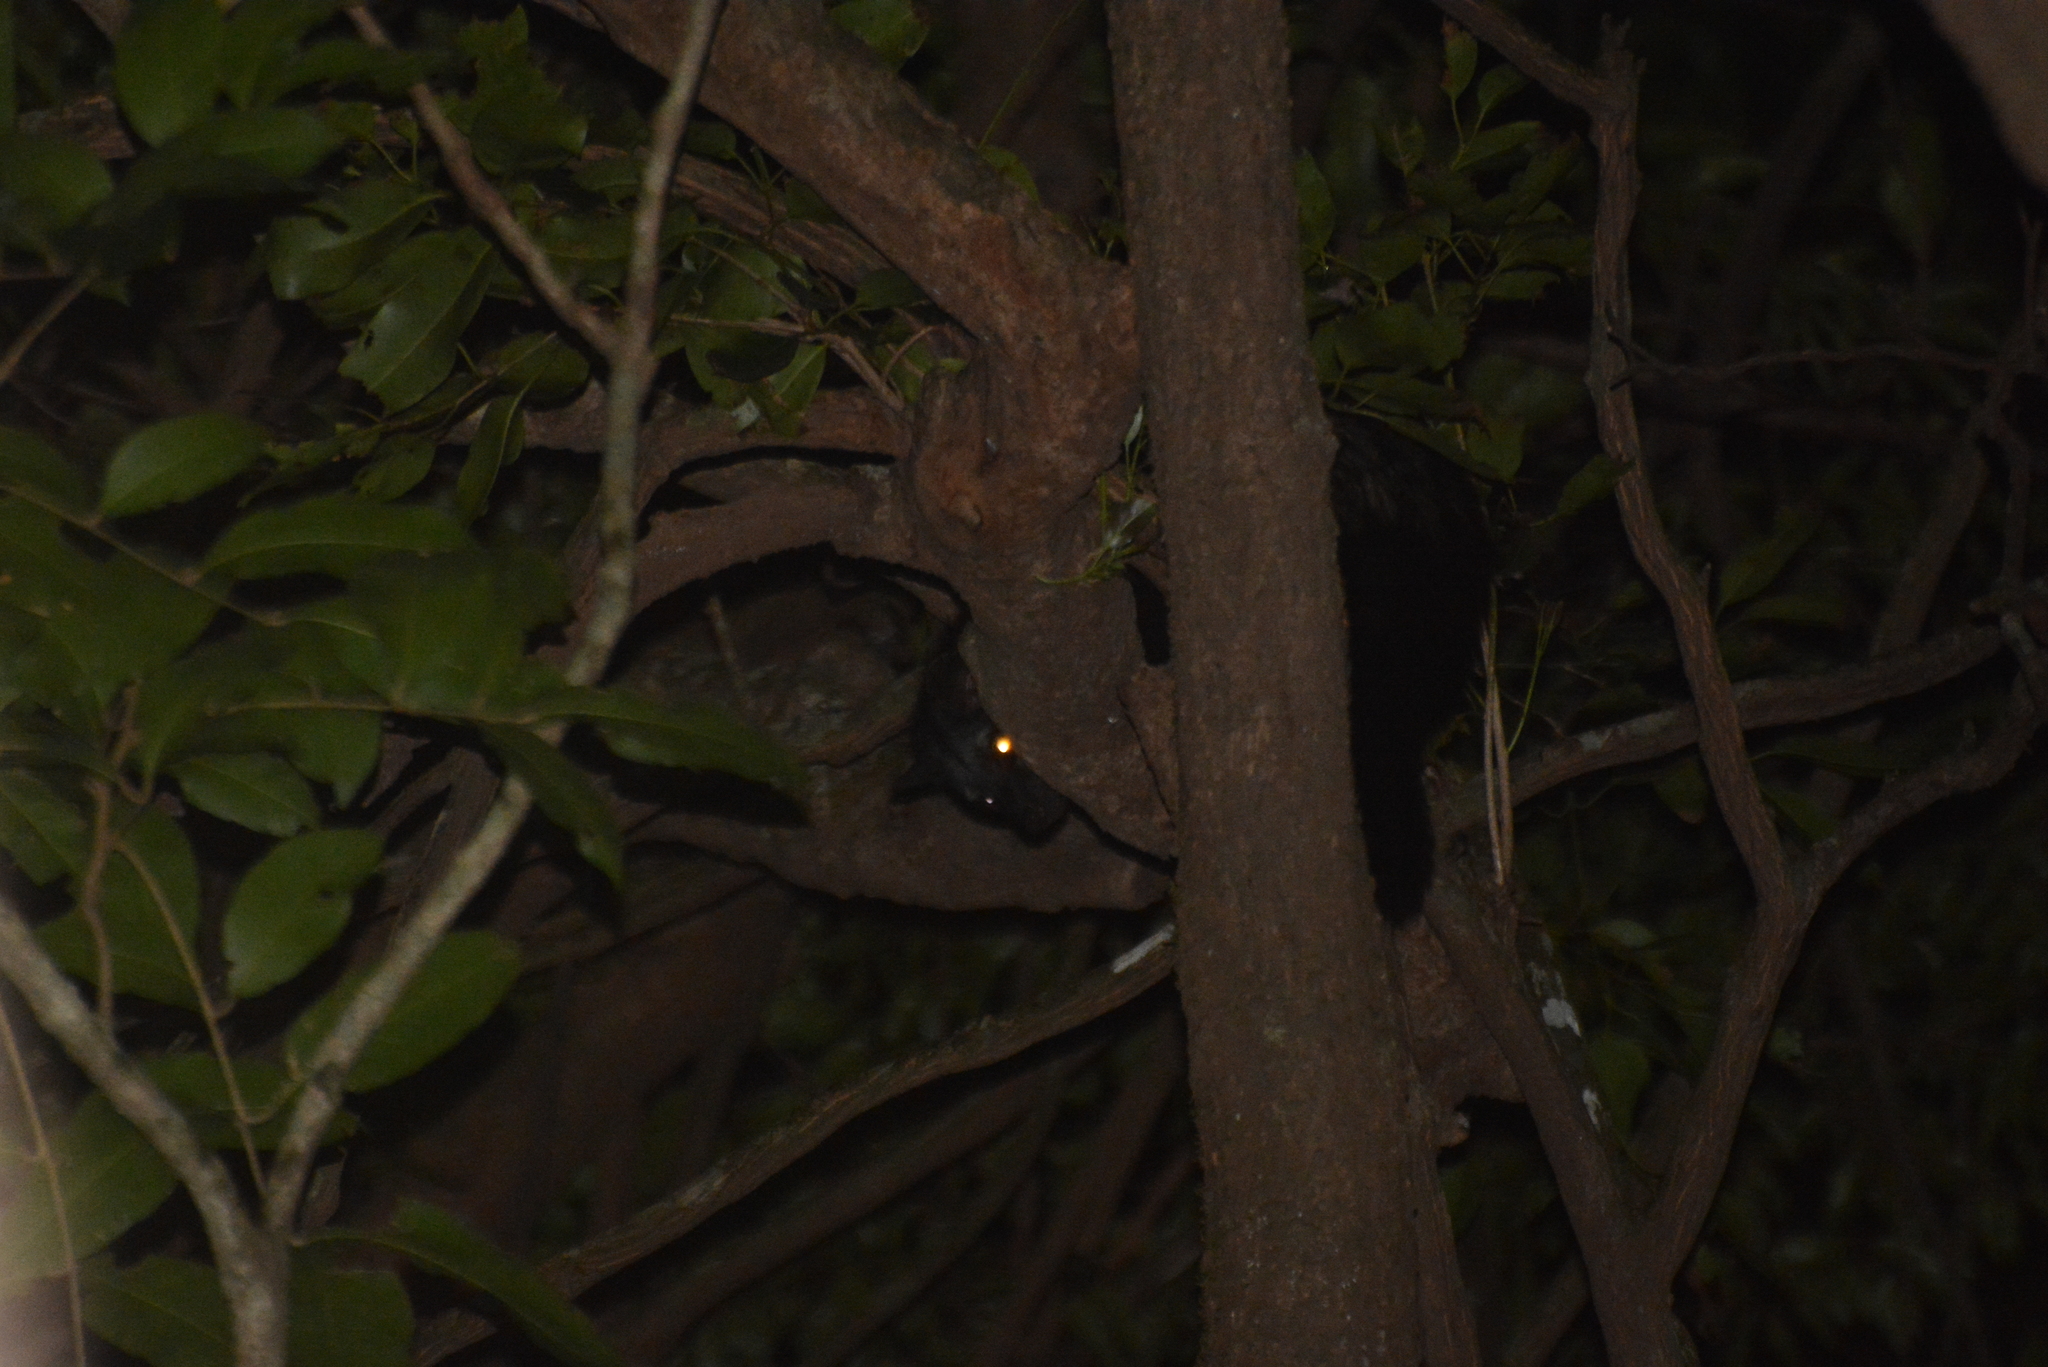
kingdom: Animalia
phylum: Chordata
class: Mammalia
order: Carnivora
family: Viverridae
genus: Paradoxurus
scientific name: Paradoxurus jerdoni
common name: Jerdon's palm civet
